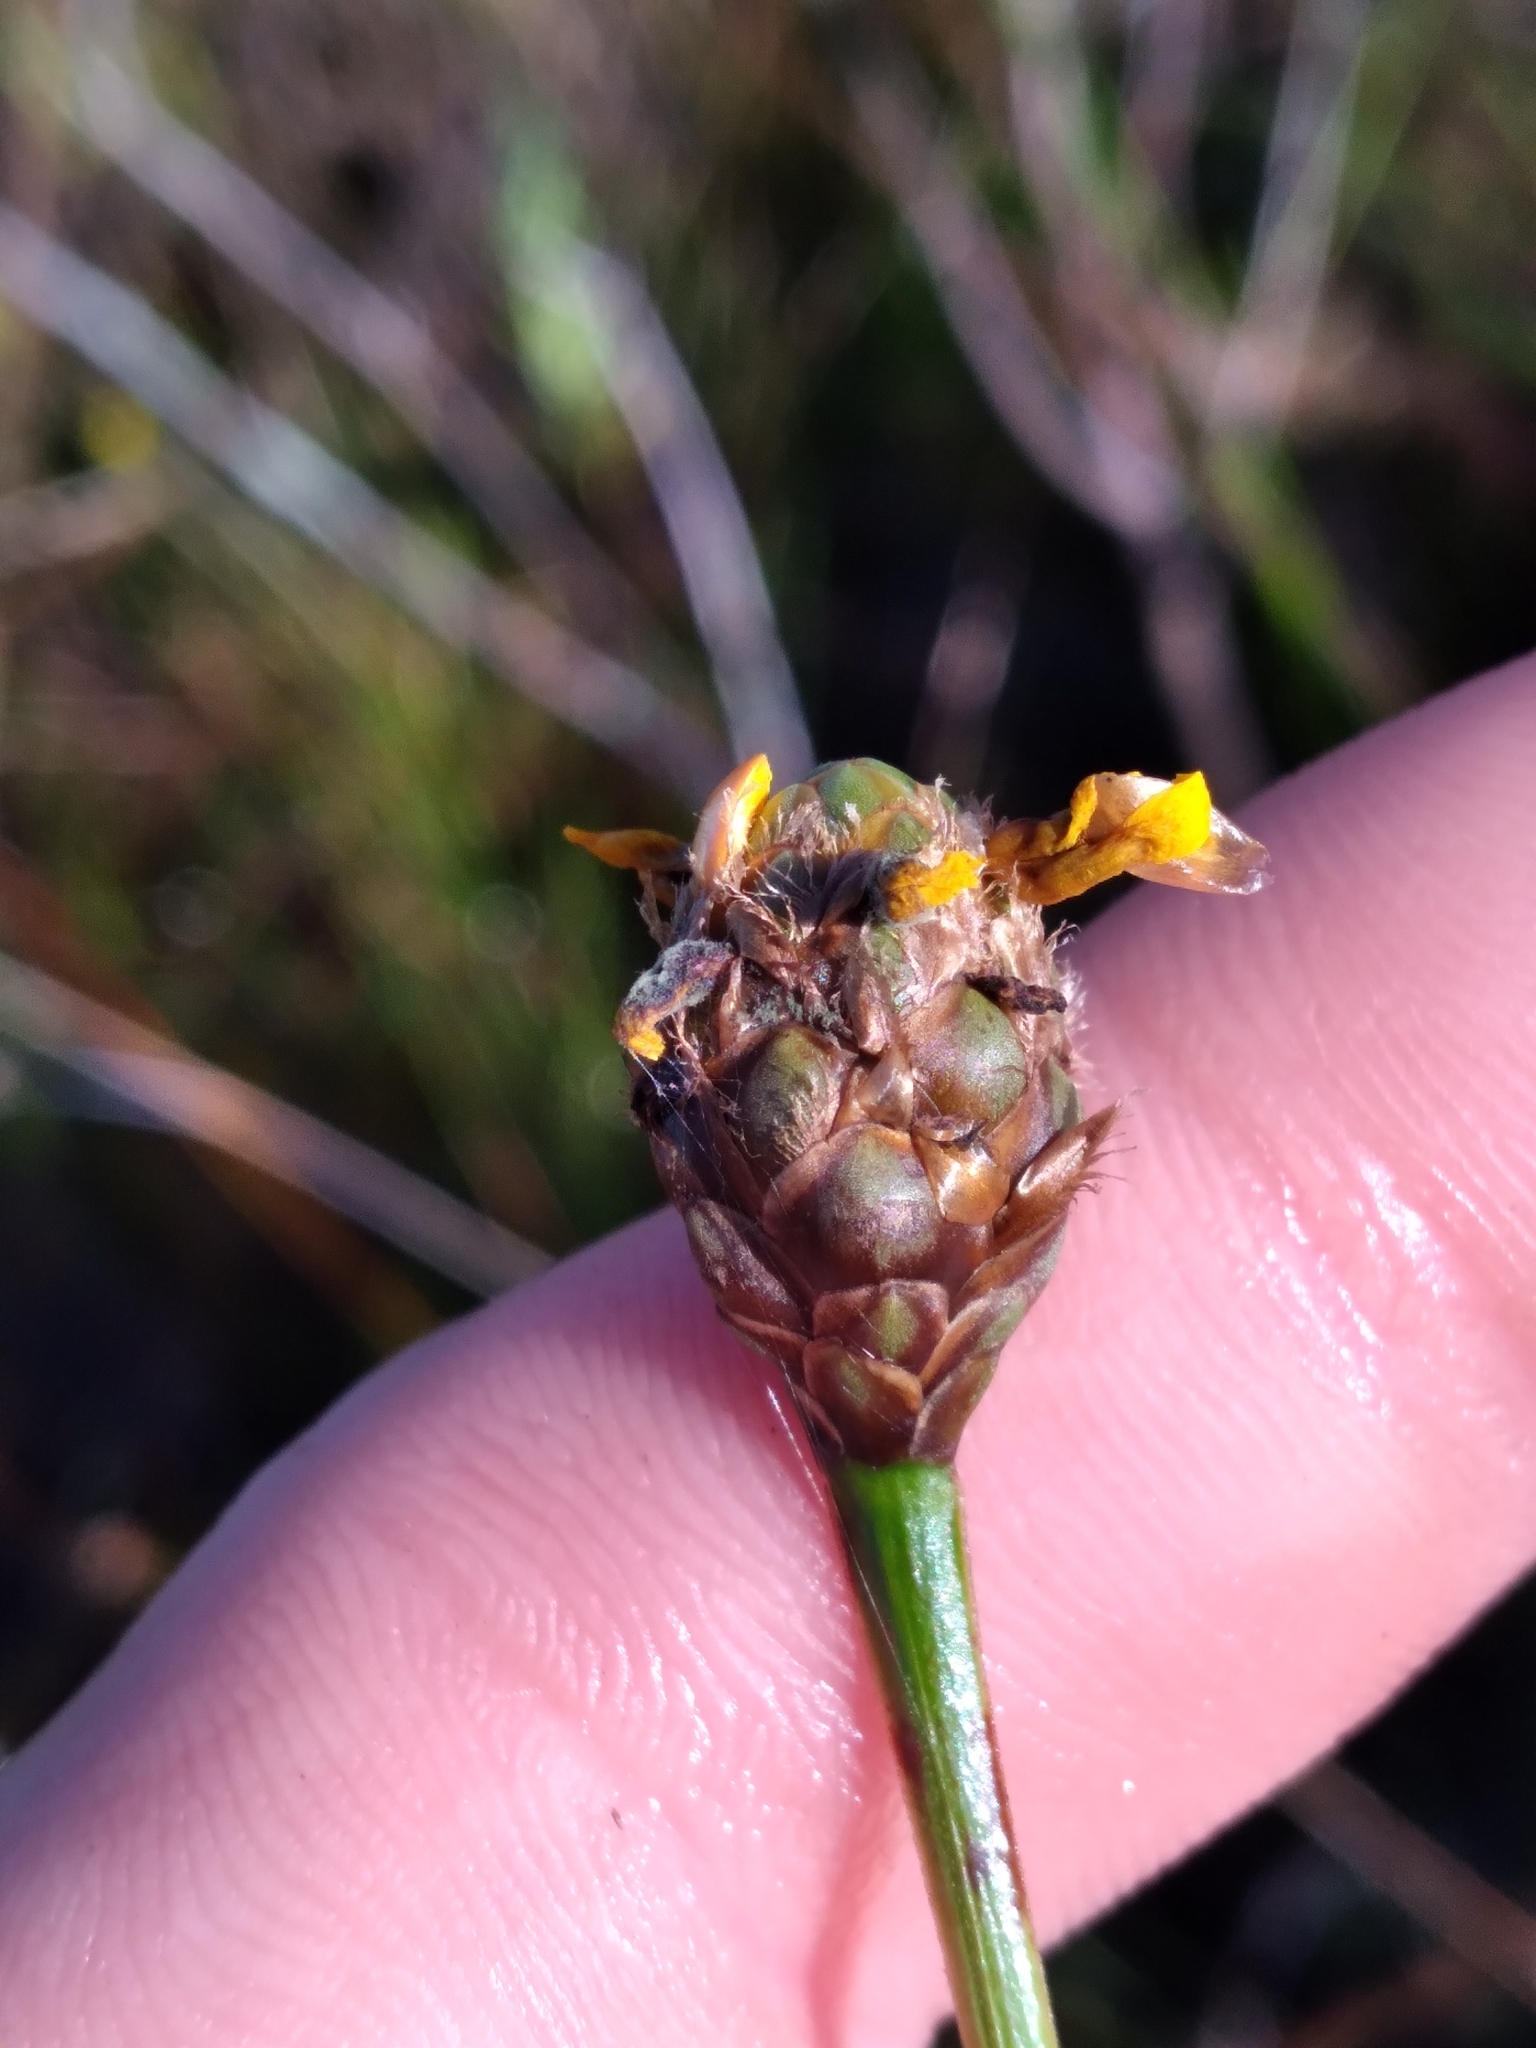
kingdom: Plantae
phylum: Tracheophyta
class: Liliopsida
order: Poales
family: Xyridaceae
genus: Xyris
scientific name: Xyris fimbriata
